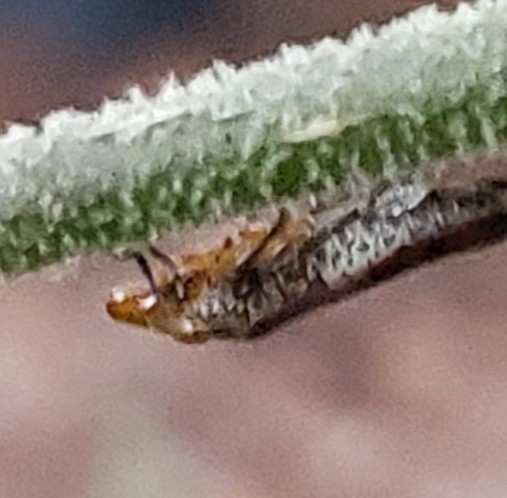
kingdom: Animalia
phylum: Arthropoda
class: Insecta
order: Hemiptera
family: Cicadellidae
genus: Homalodisca
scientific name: Homalodisca vitripennis
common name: Glassy-winged sharpshooter
